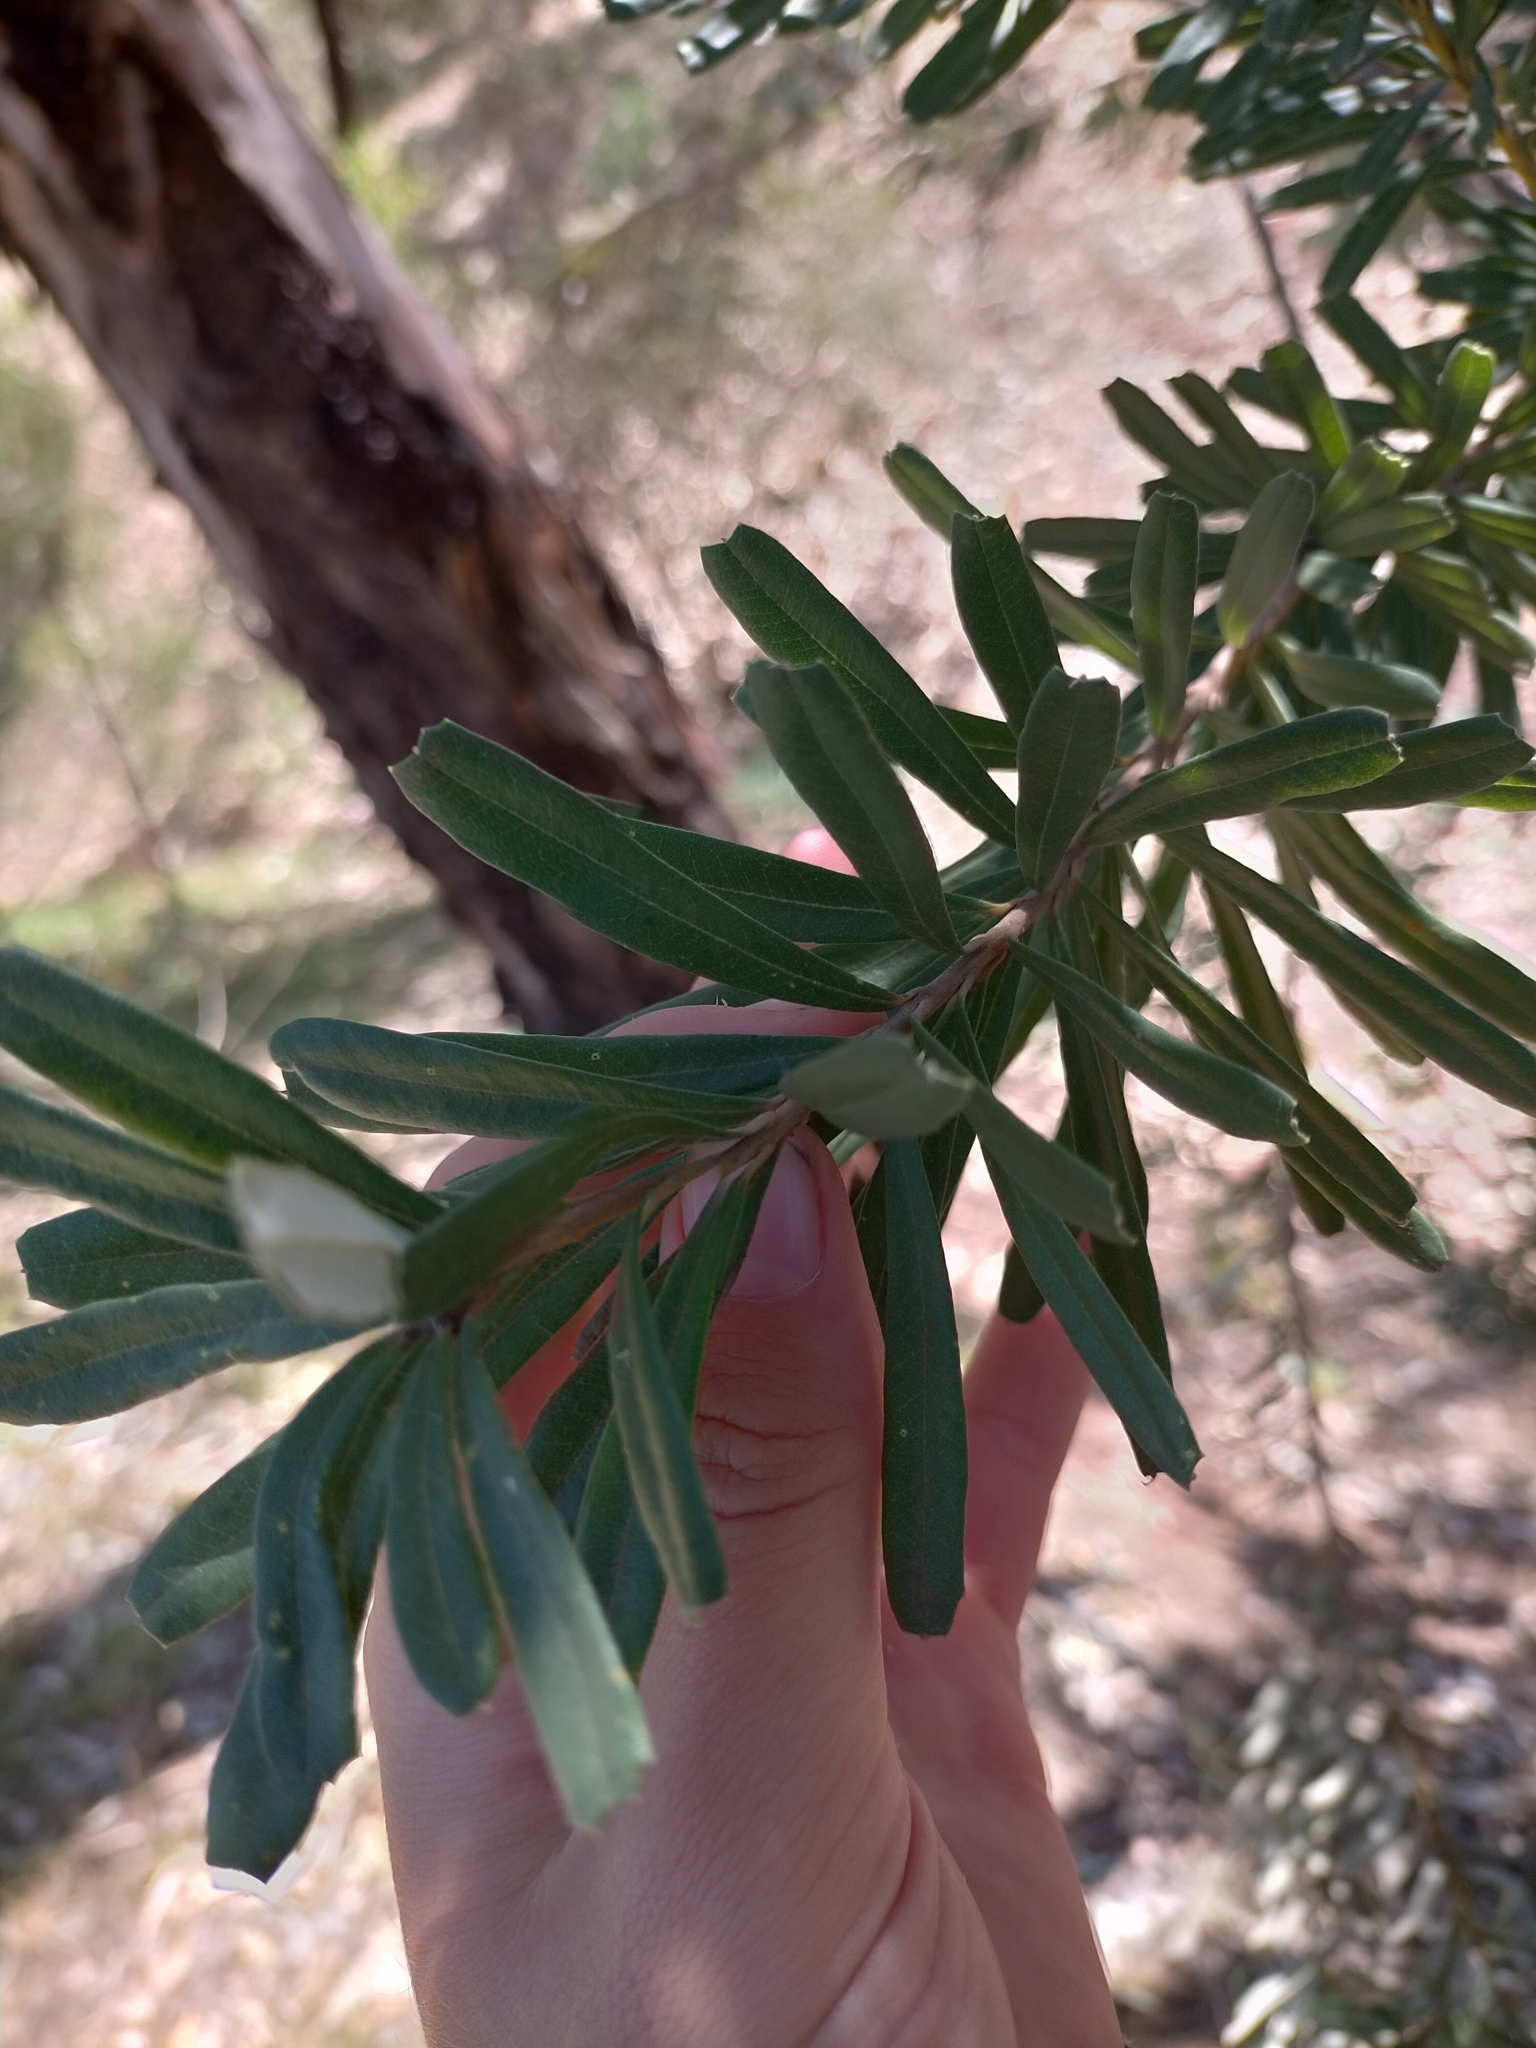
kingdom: Plantae
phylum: Tracheophyta
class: Magnoliopsida
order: Proteales
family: Proteaceae
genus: Banksia
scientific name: Banksia marginata
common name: Silver banksia
